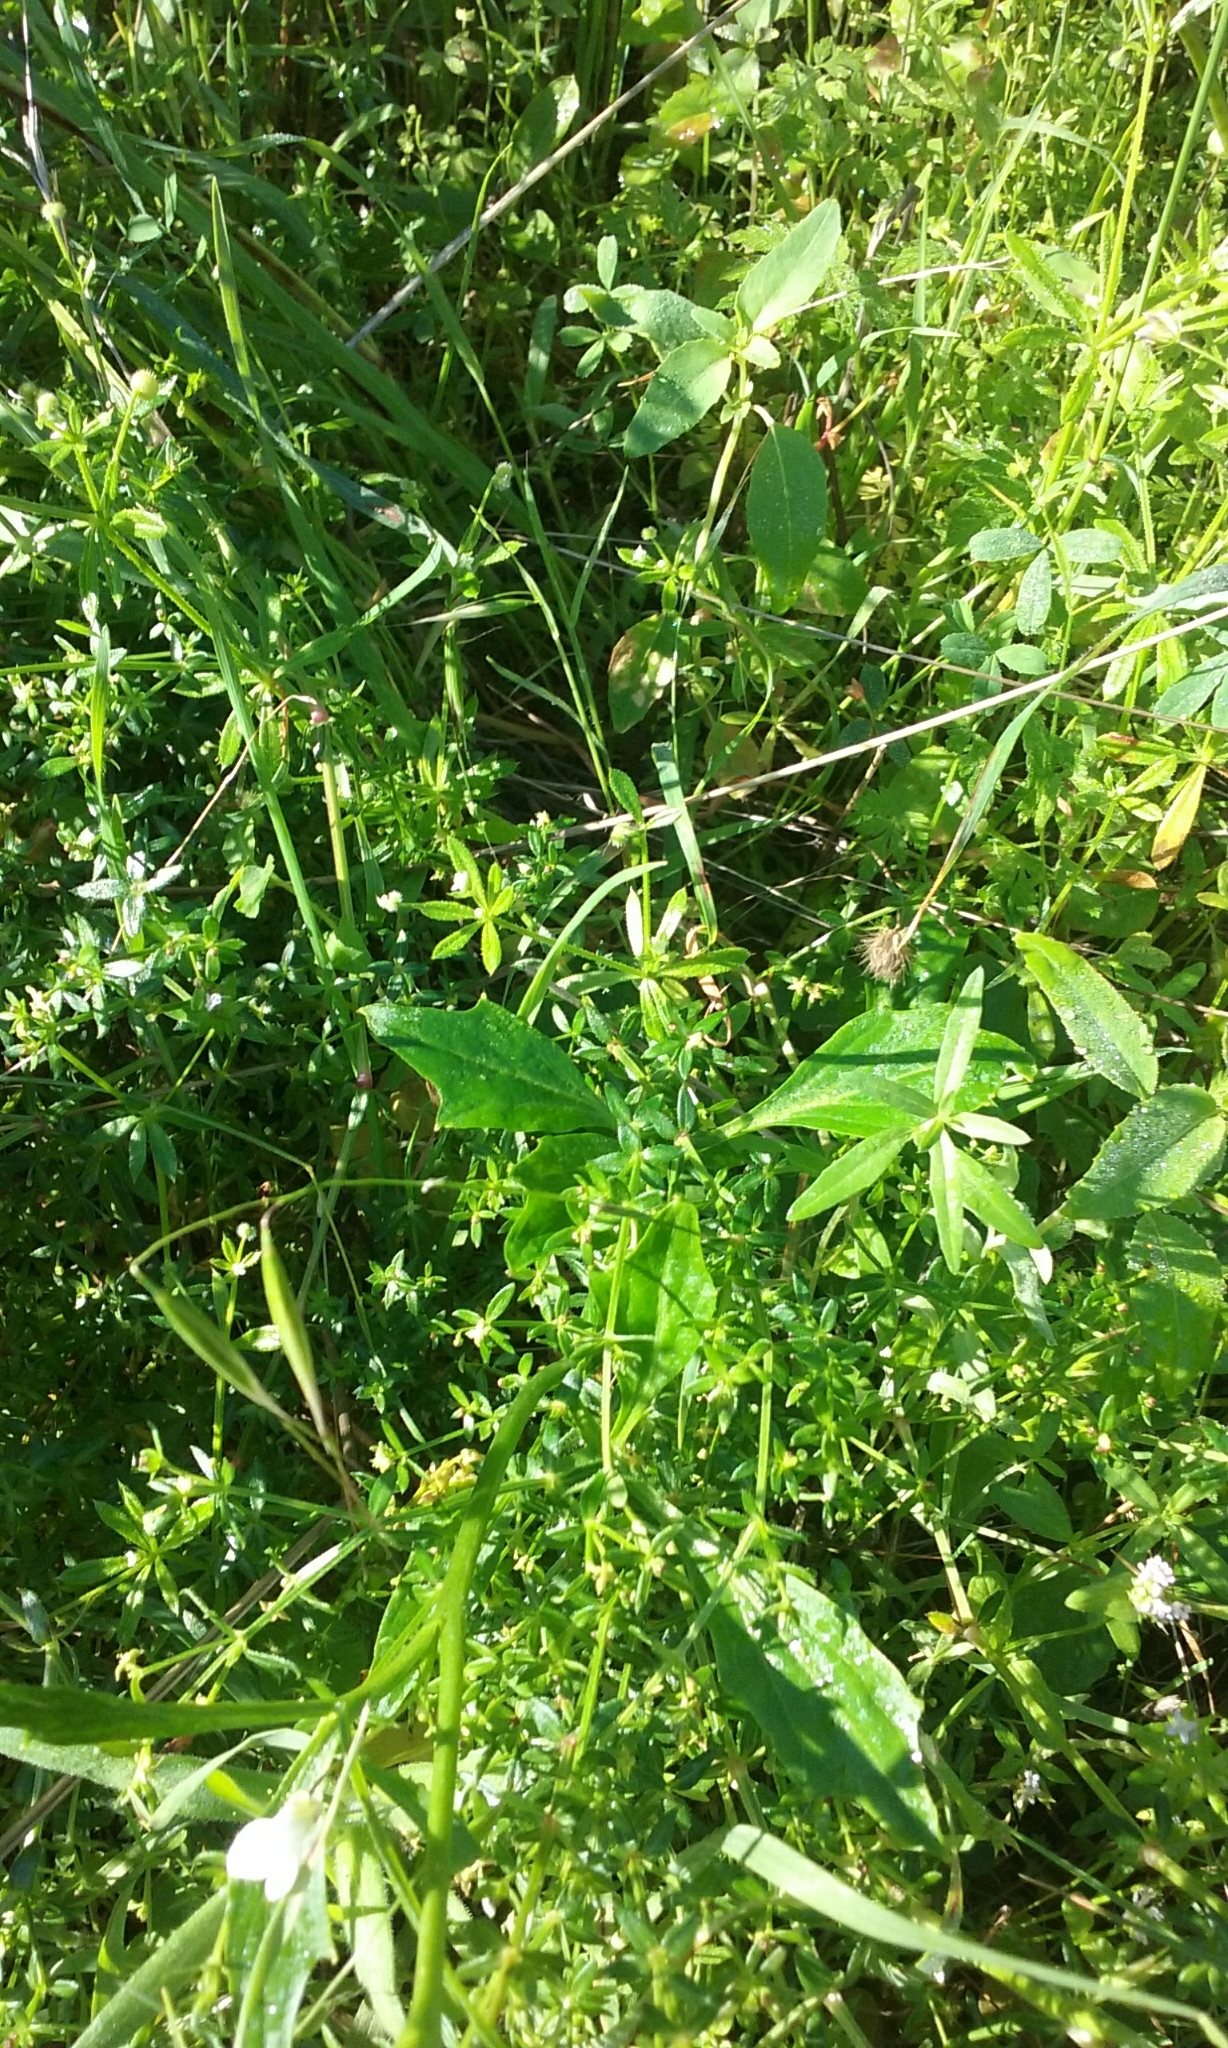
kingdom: Plantae
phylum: Tracheophyta
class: Magnoliopsida
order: Brassicales
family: Brassicaceae
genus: Cardamine
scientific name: Cardamine californica
